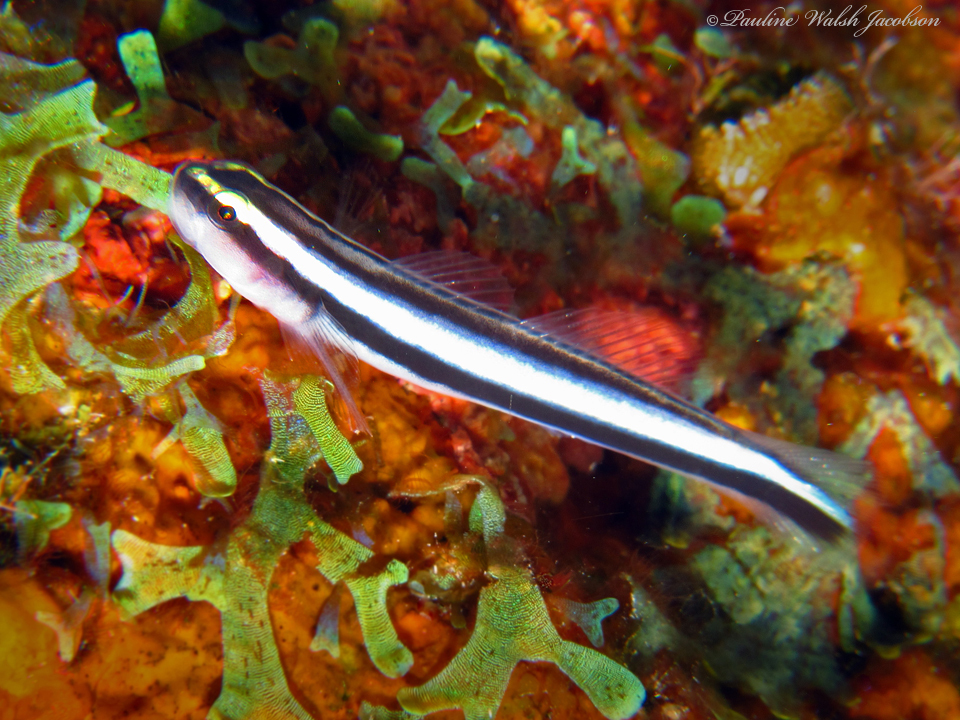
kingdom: Animalia
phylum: Chordata
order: Perciformes
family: Gobiidae
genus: Elacatinus
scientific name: Elacatinus prochilos
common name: Broadstripe goby
